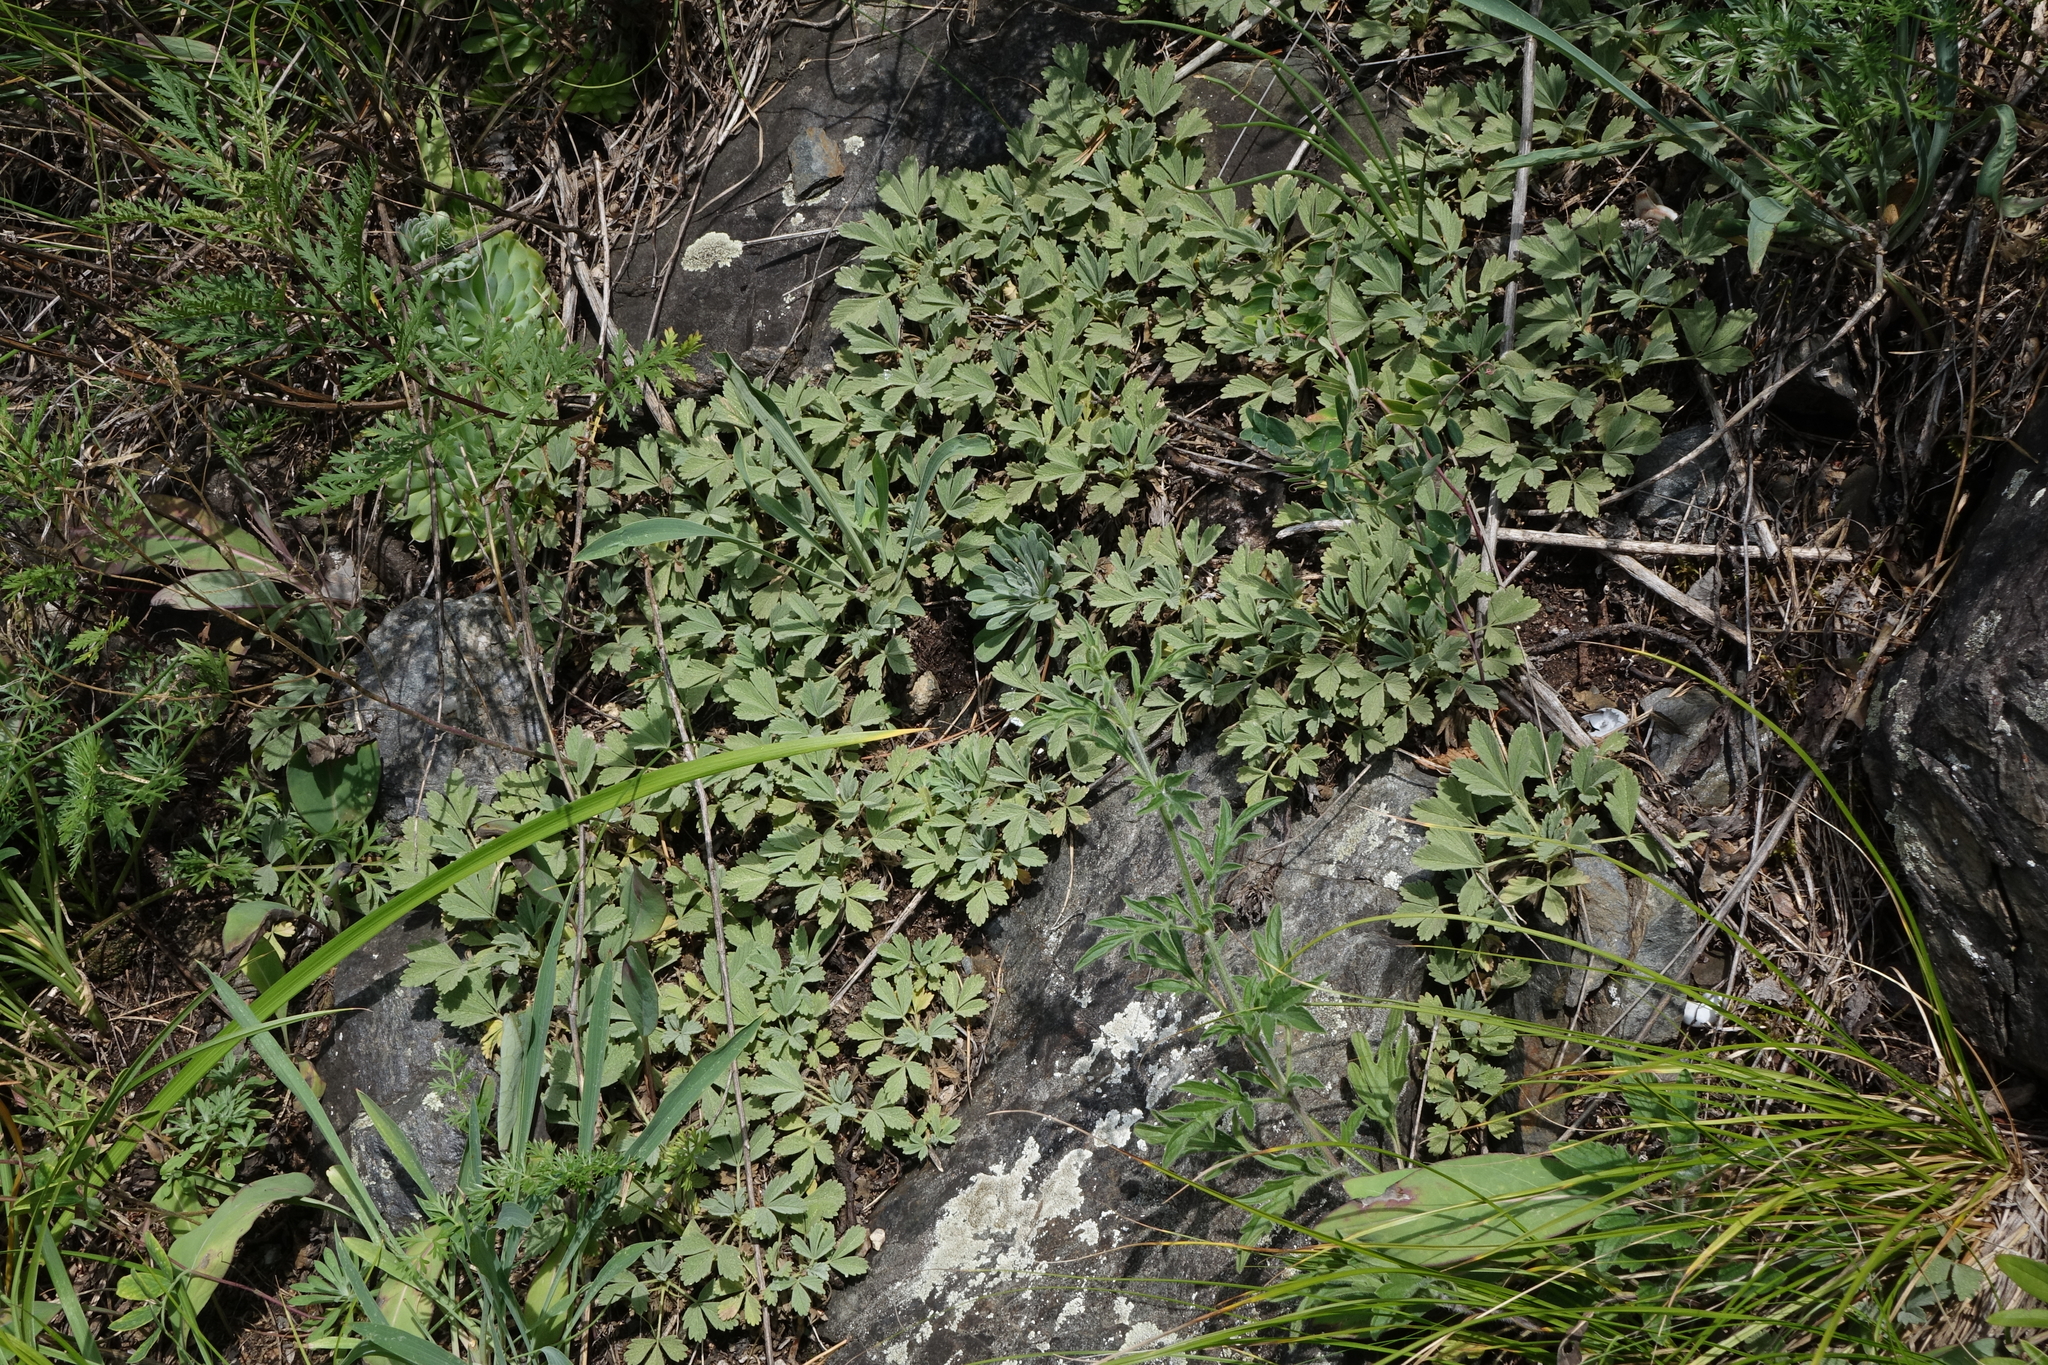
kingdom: Plantae
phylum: Tracheophyta
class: Magnoliopsida
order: Rosales
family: Rosaceae
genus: Potentilla
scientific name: Potentilla acaulis
